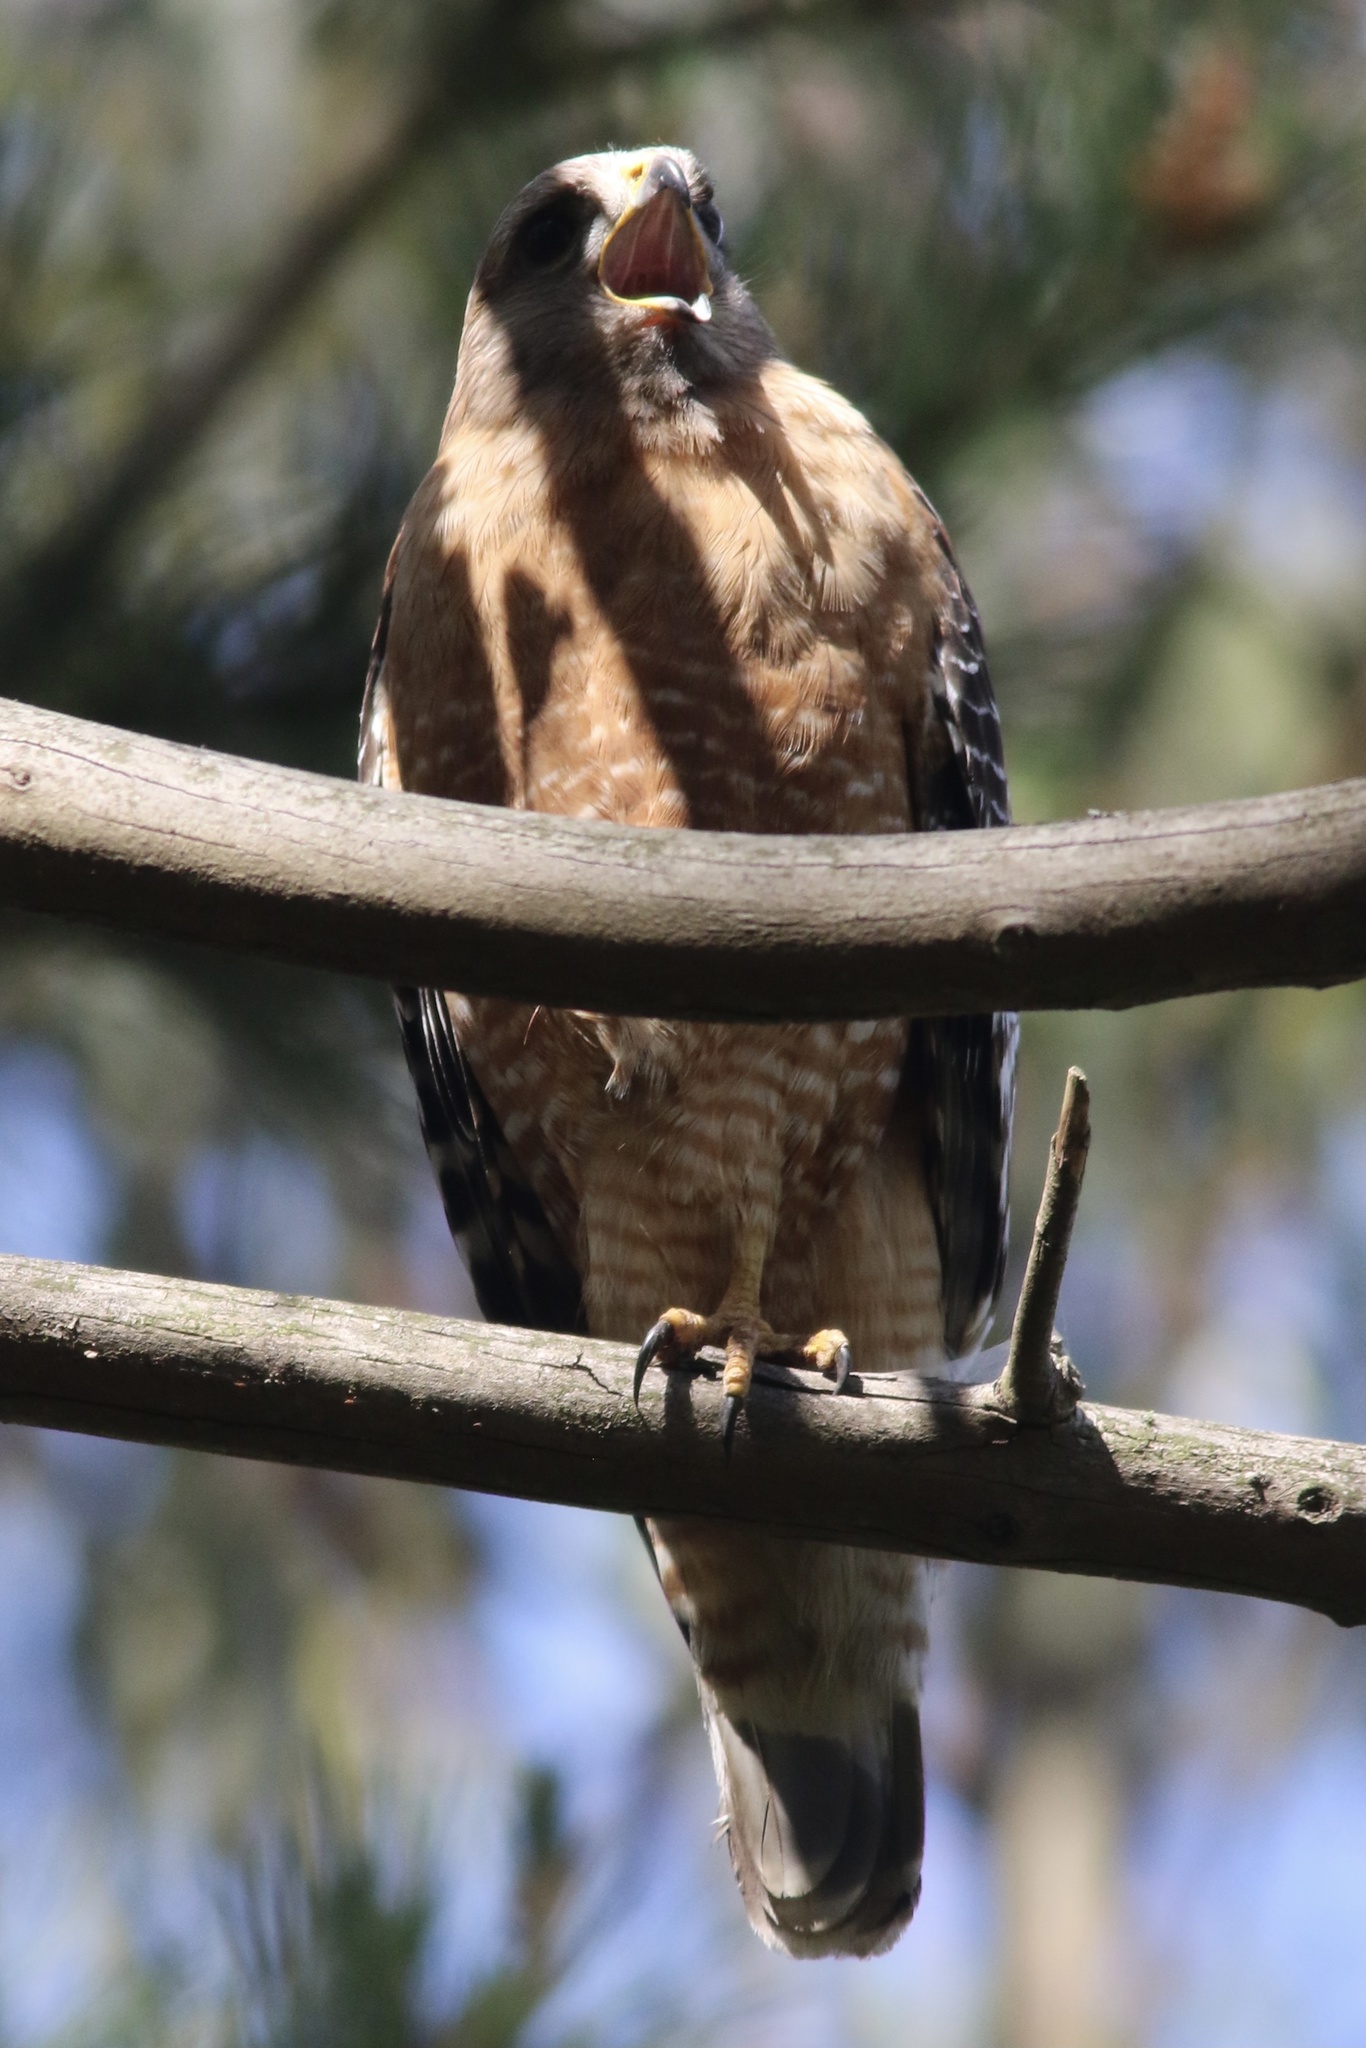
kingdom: Animalia
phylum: Chordata
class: Aves
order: Accipitriformes
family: Accipitridae
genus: Buteo
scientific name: Buteo lineatus
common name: Red-shouldered hawk
